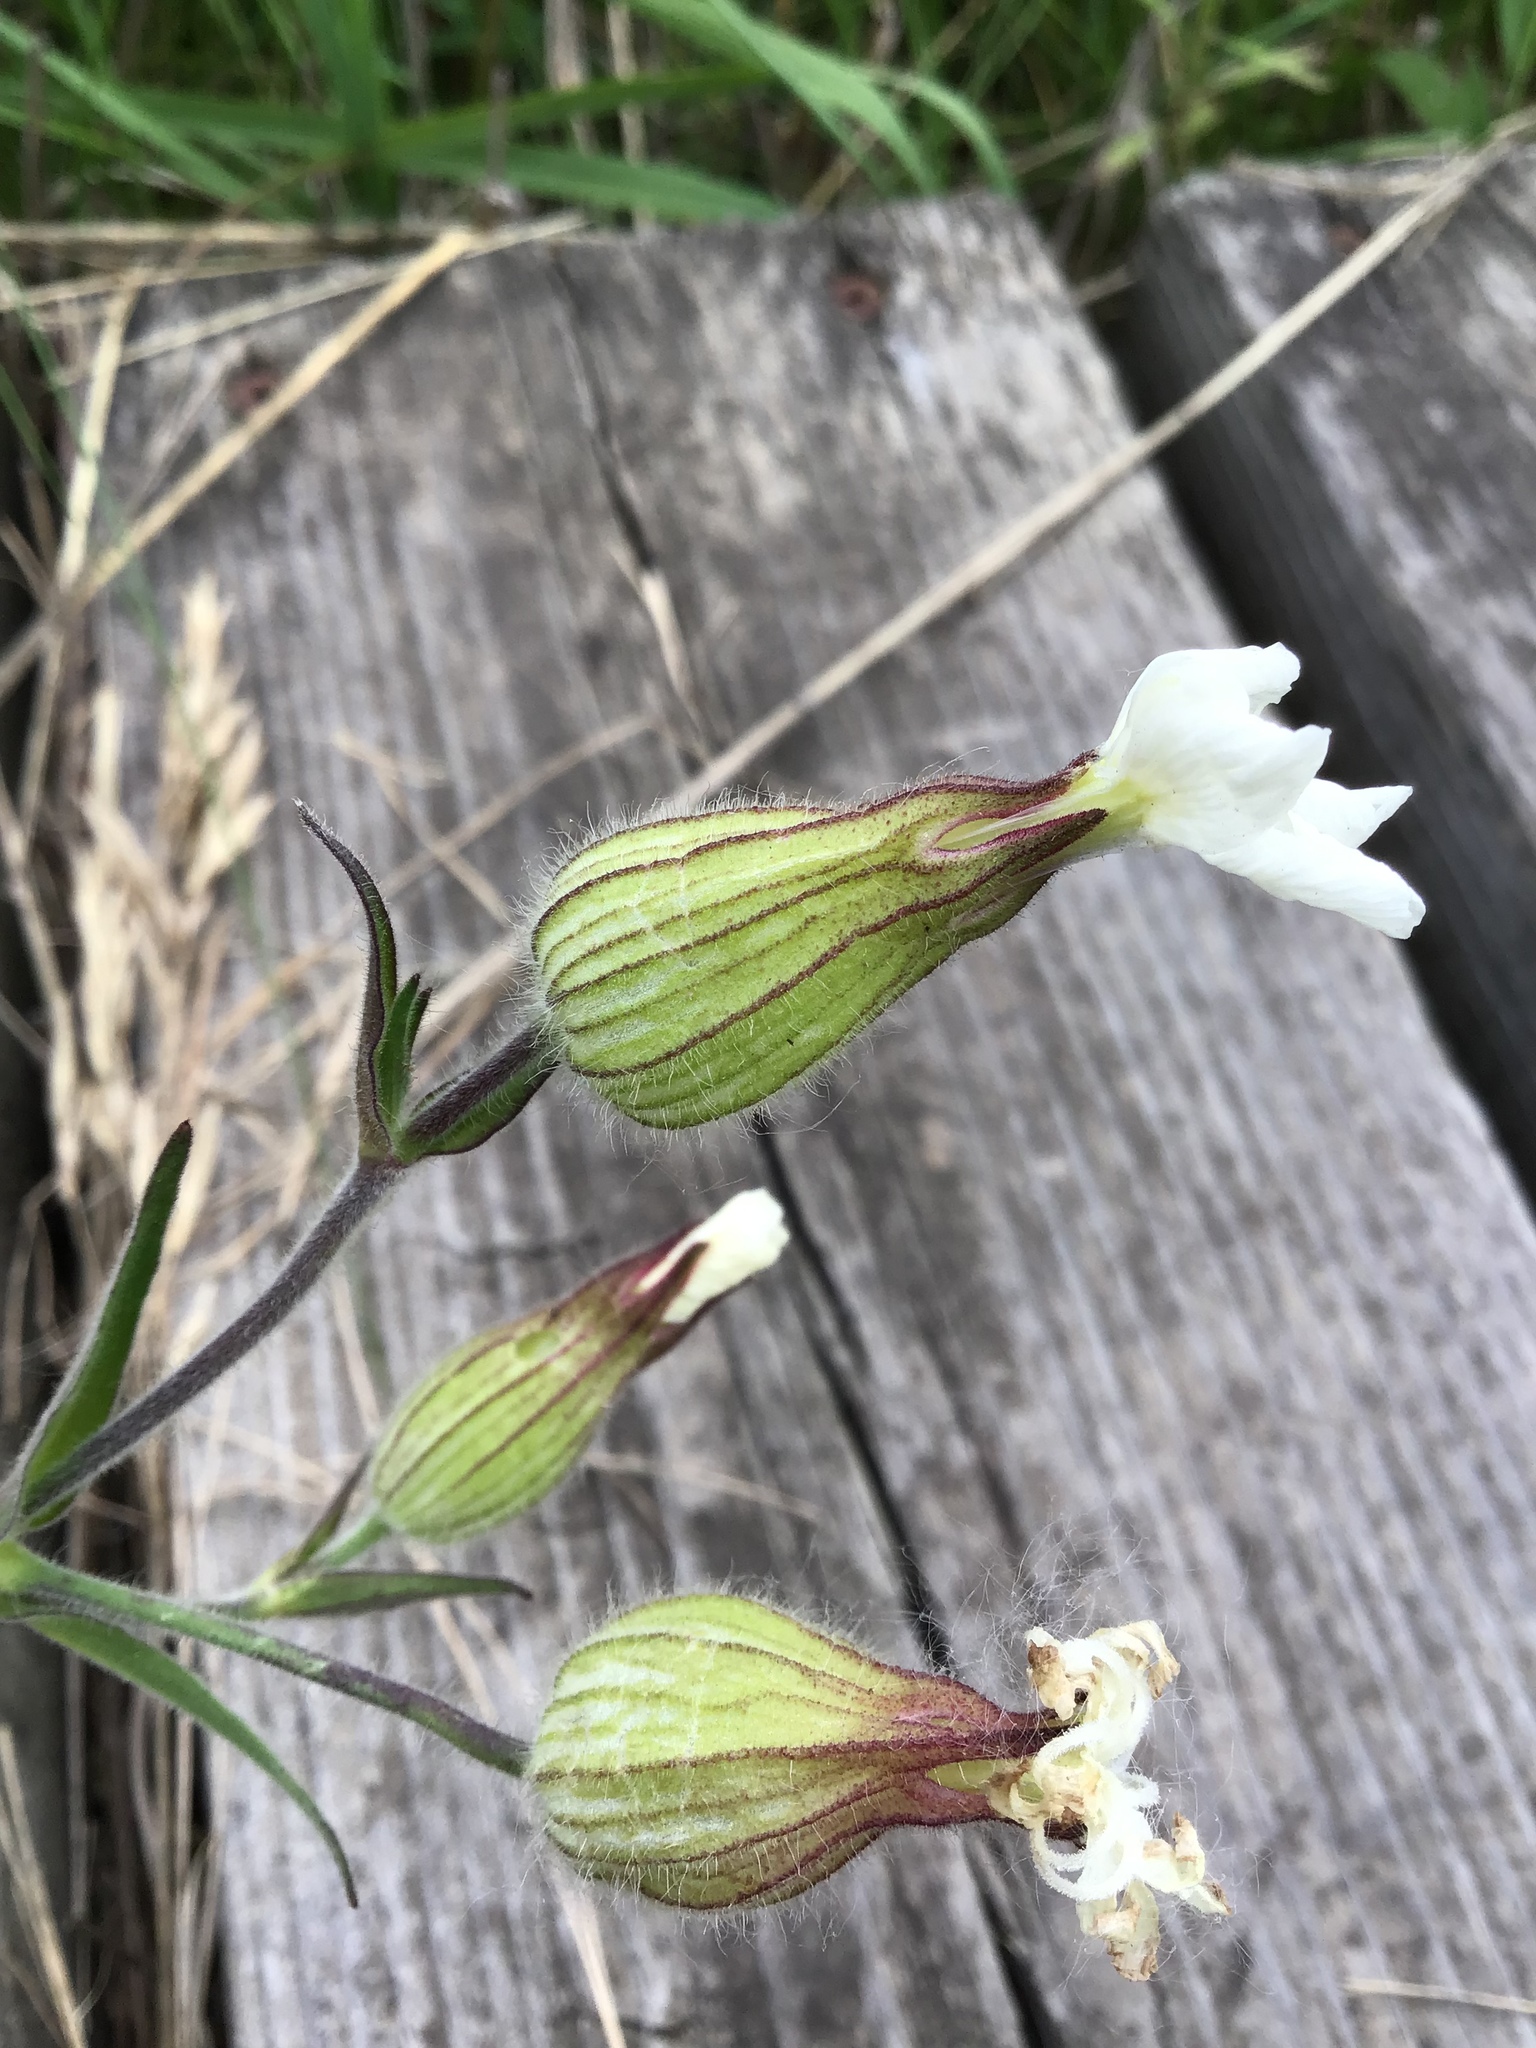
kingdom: Plantae
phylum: Tracheophyta
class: Magnoliopsida
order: Caryophyllales
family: Caryophyllaceae
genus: Silene
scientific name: Silene latifolia
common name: White campion
